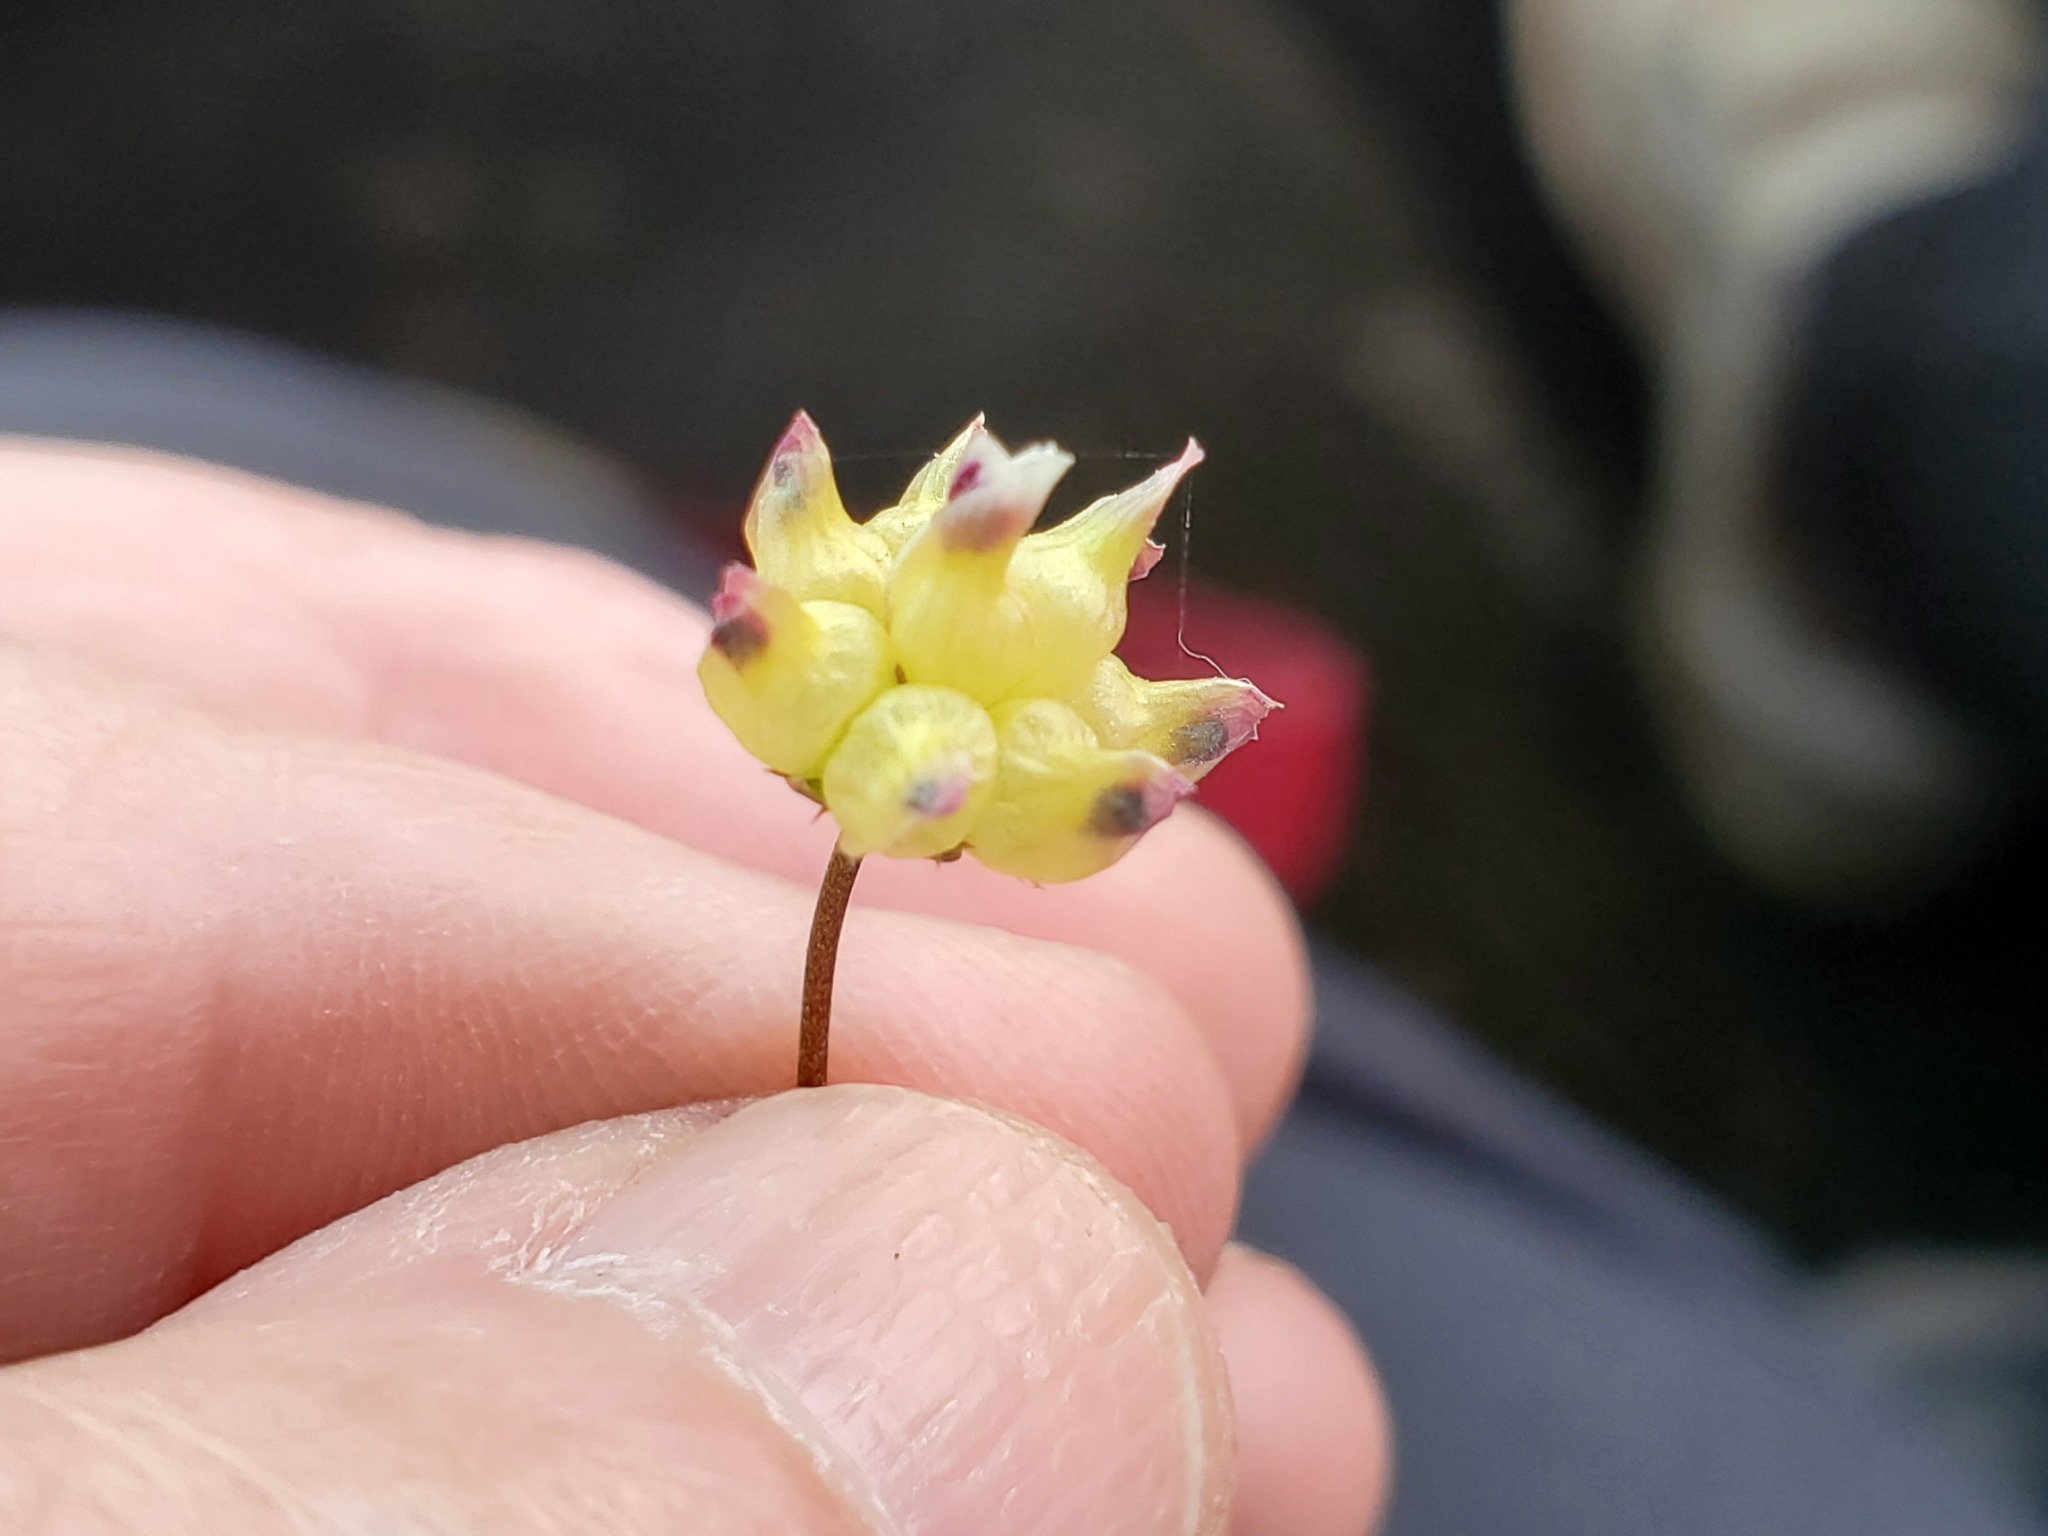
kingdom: Plantae
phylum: Tracheophyta
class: Magnoliopsida
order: Fabales
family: Fabaceae
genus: Trifolium
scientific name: Trifolium depauperatum
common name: Poverty clover
